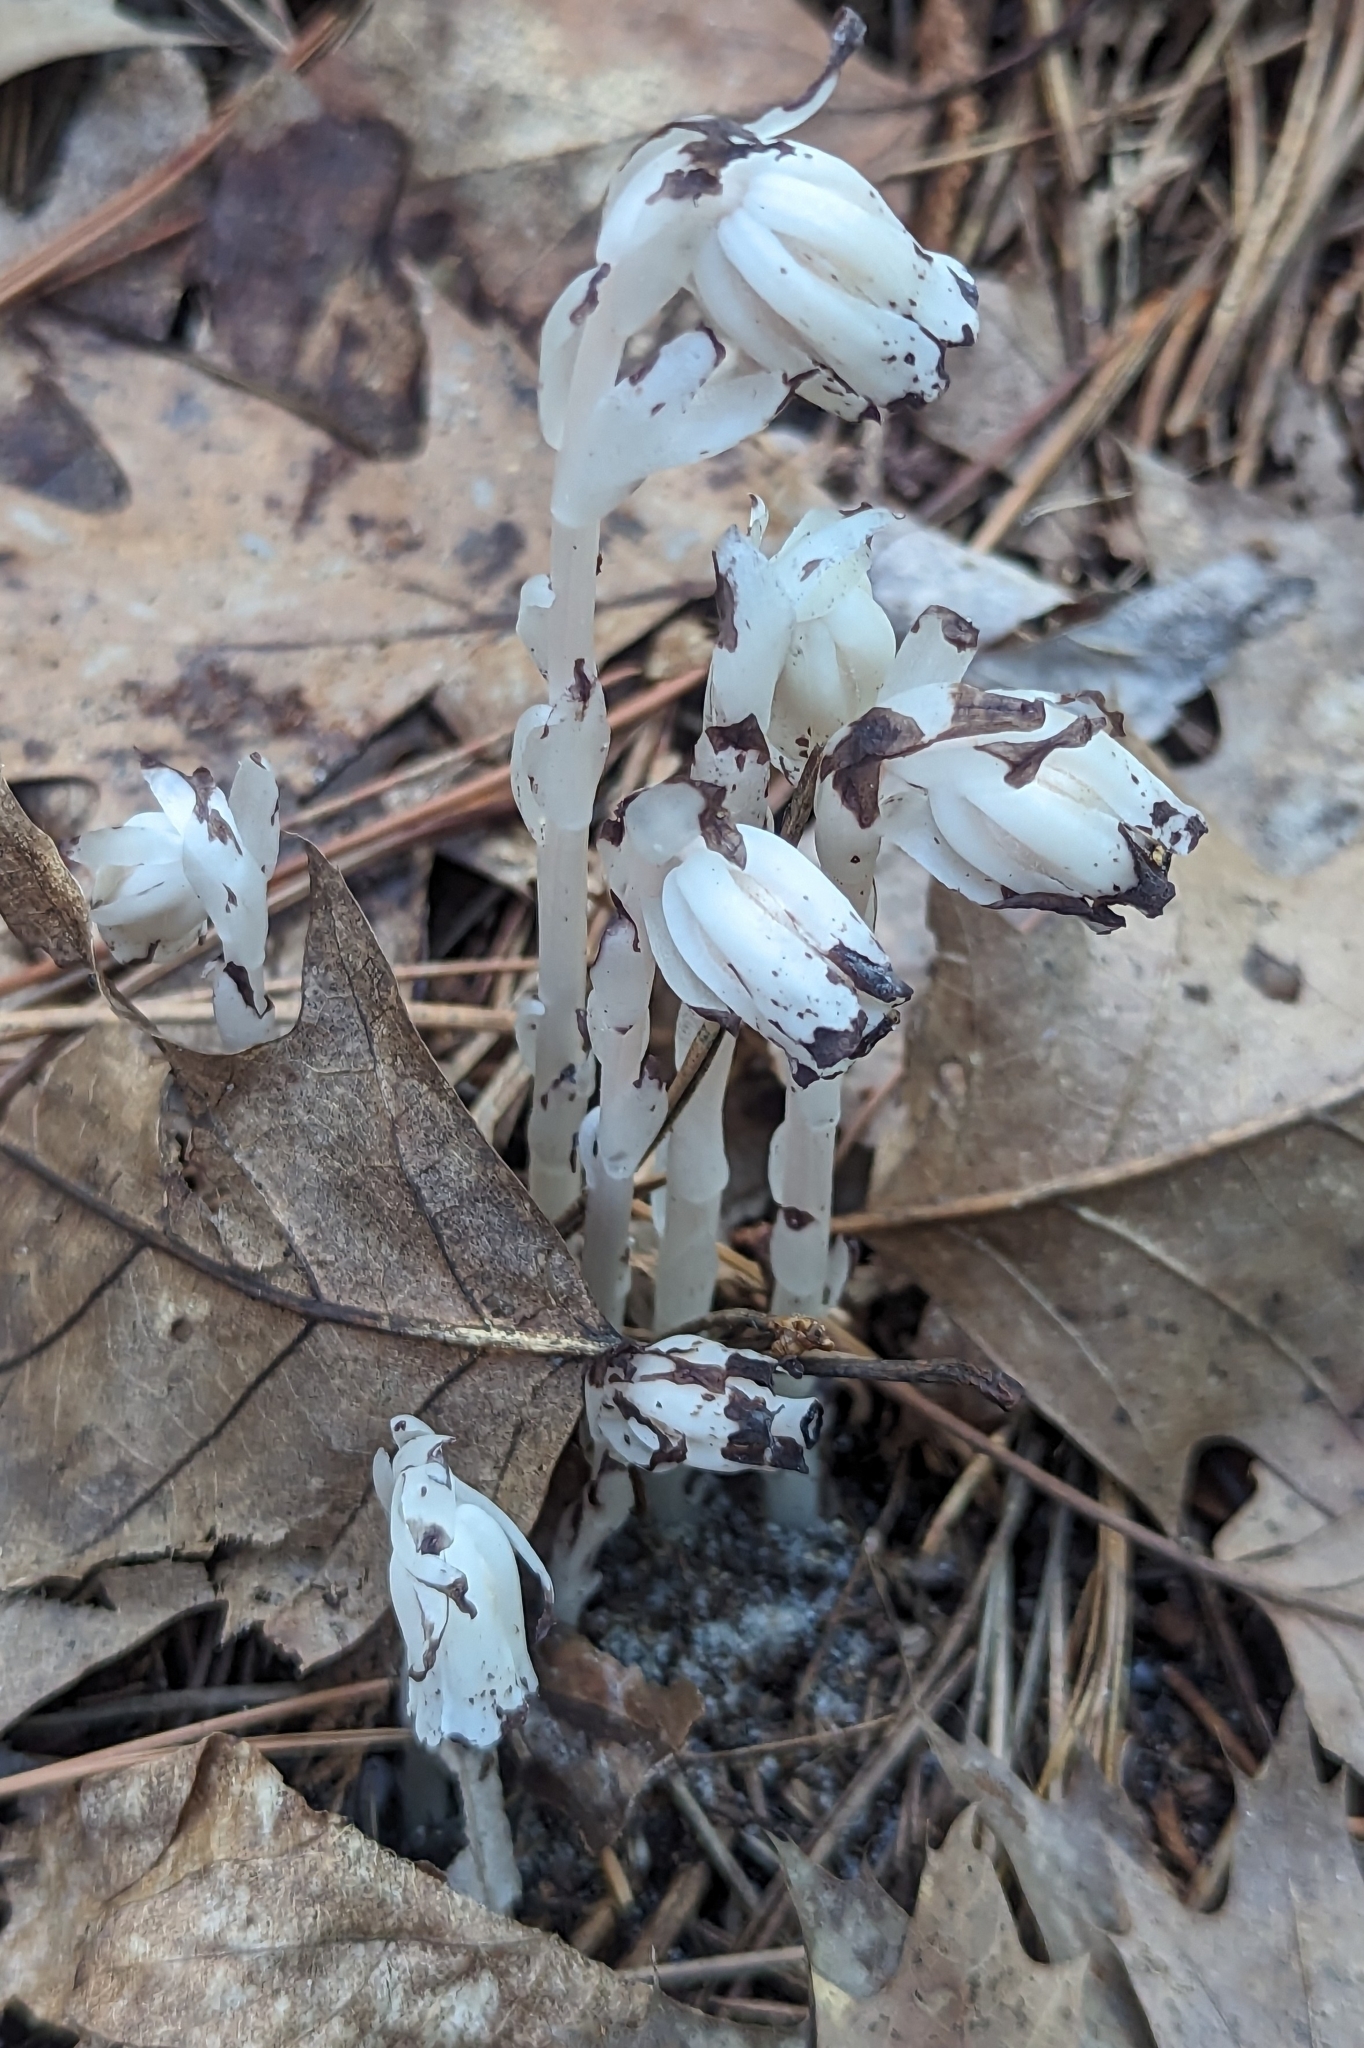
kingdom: Plantae
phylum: Tracheophyta
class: Magnoliopsida
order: Ericales
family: Ericaceae
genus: Monotropa
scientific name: Monotropa uniflora
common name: Convulsion root
